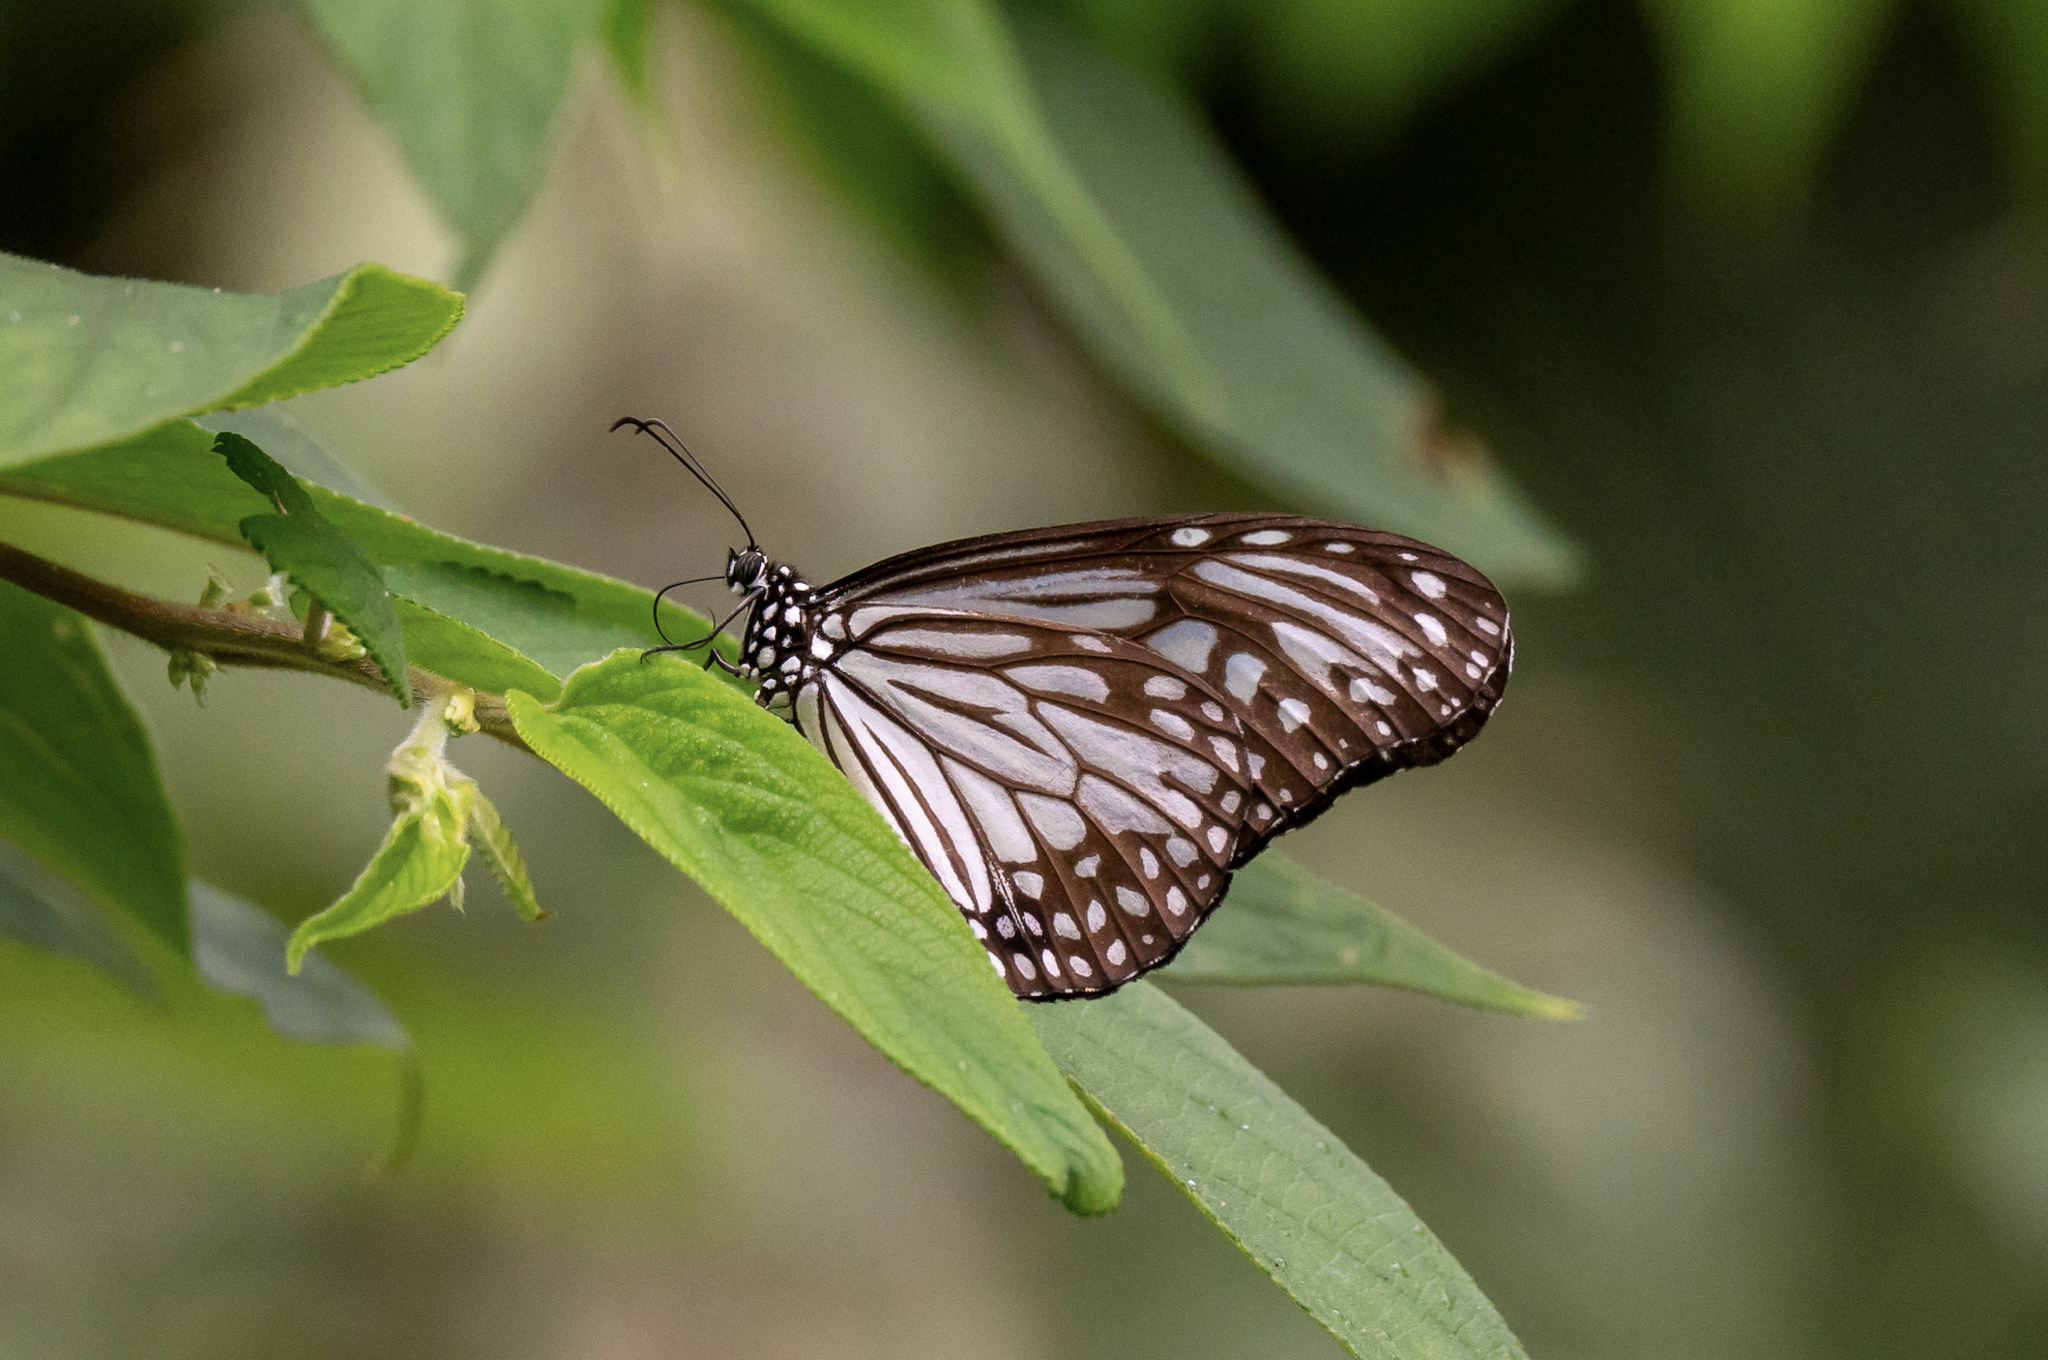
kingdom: Animalia
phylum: Arthropoda
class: Insecta
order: Lepidoptera
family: Nymphalidae
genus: Parantica
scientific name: Parantica aglea
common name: Glassy tiger
